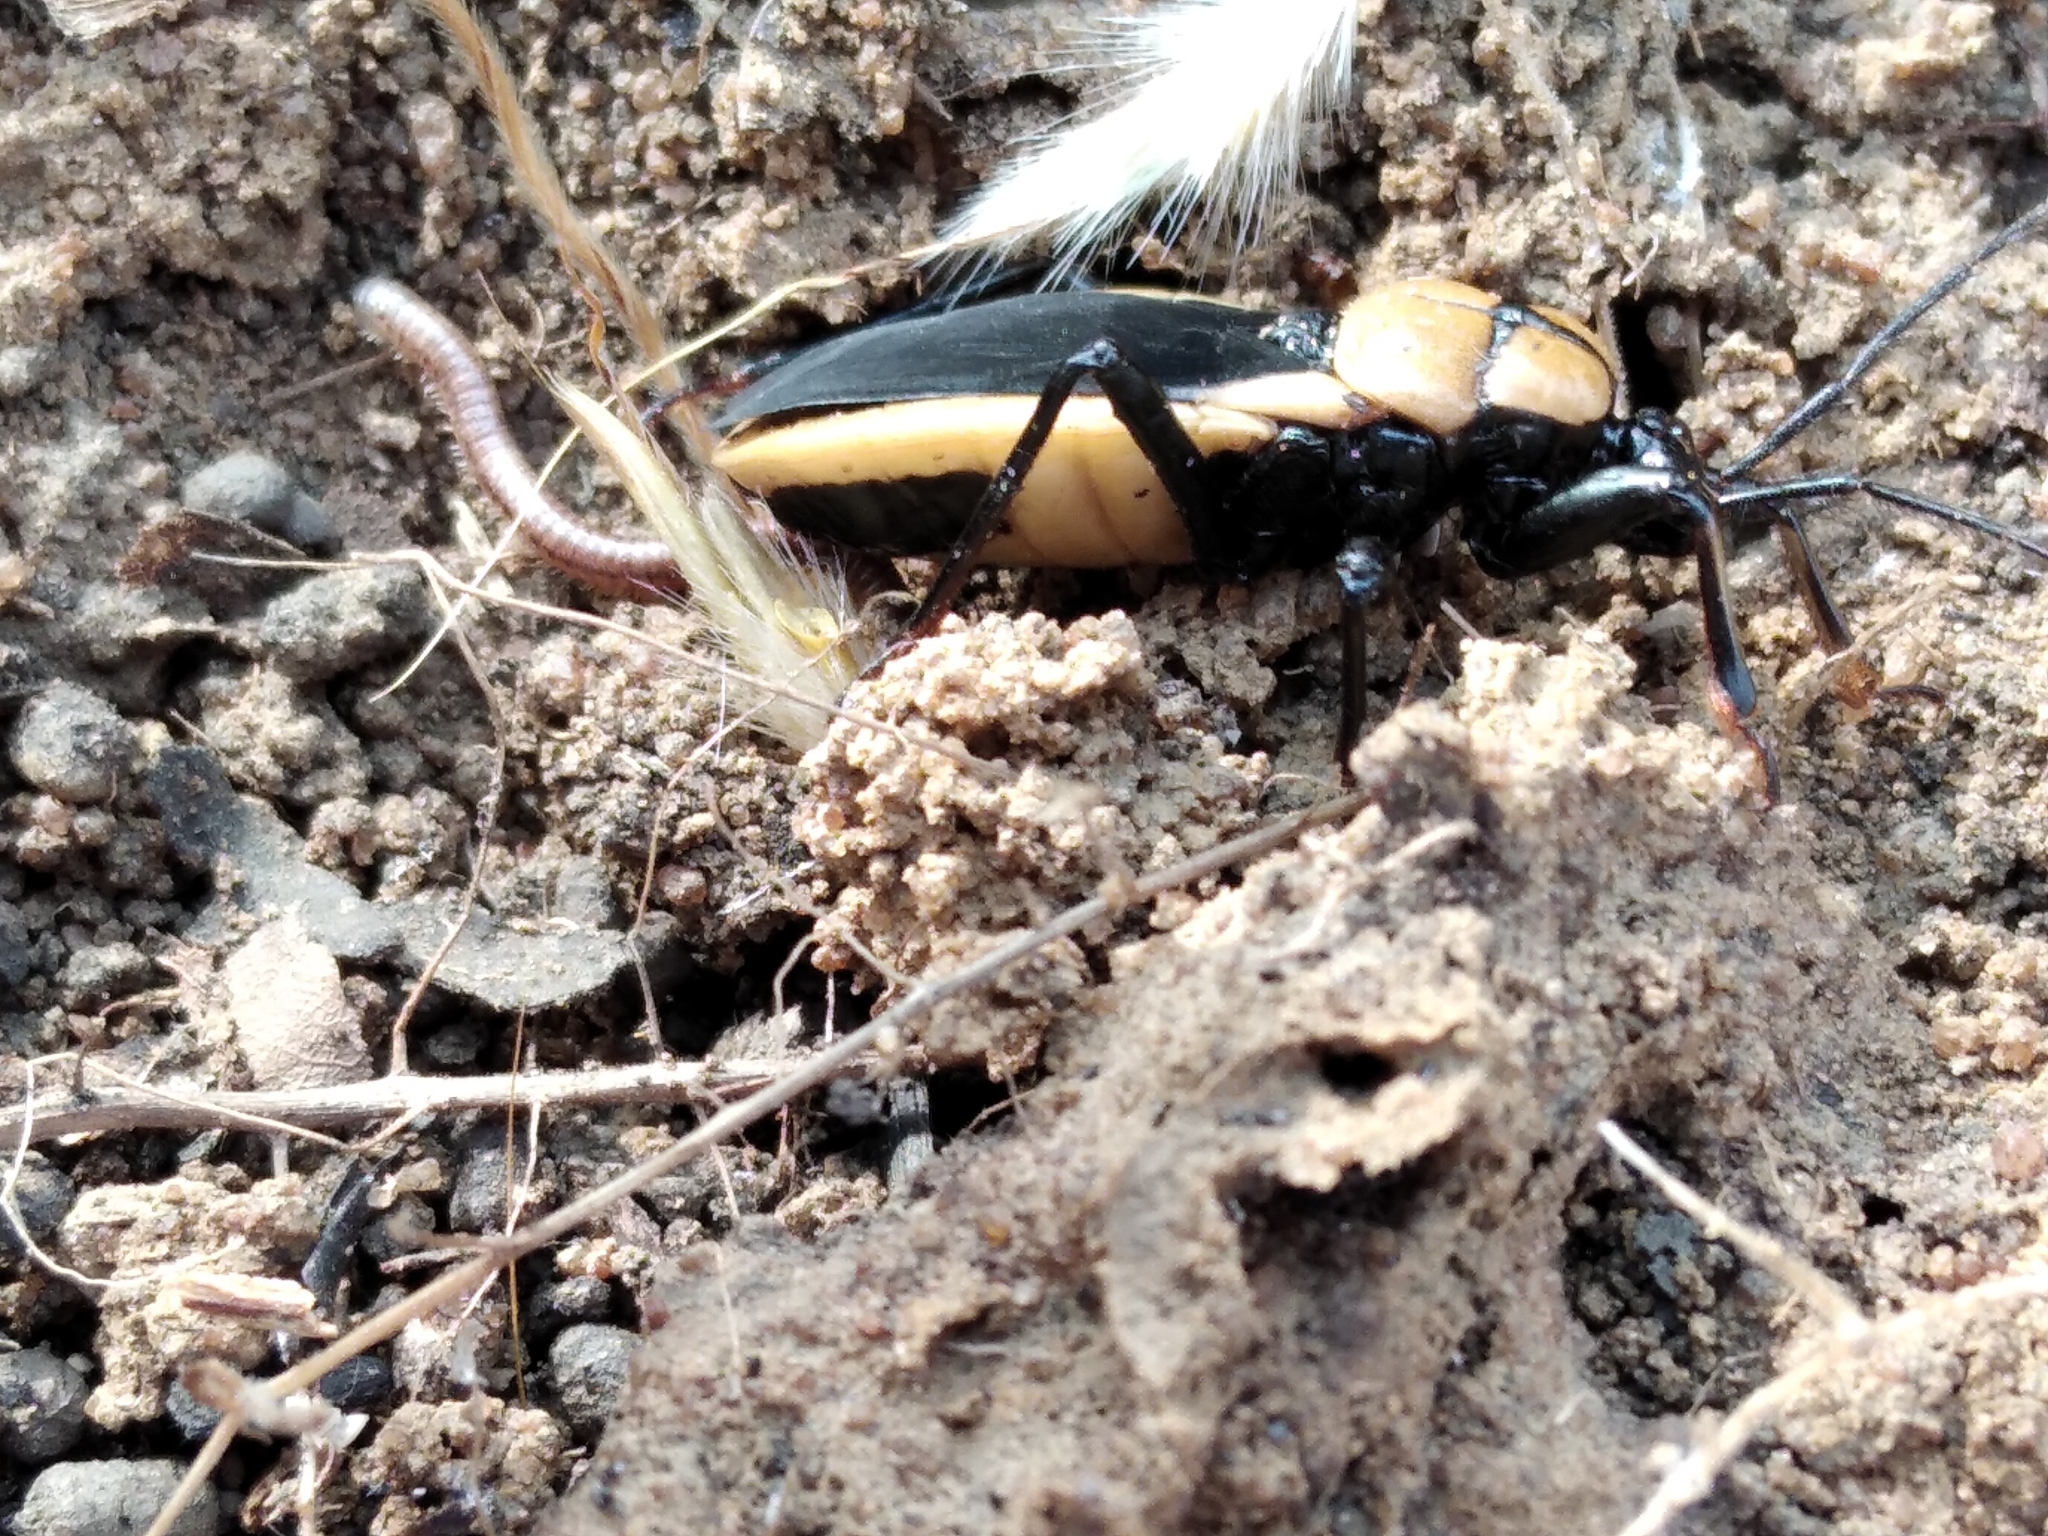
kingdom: Animalia
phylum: Arthropoda
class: Insecta
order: Hemiptera
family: Reduviidae
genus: Ectrichodia
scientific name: Ectrichodia crux
